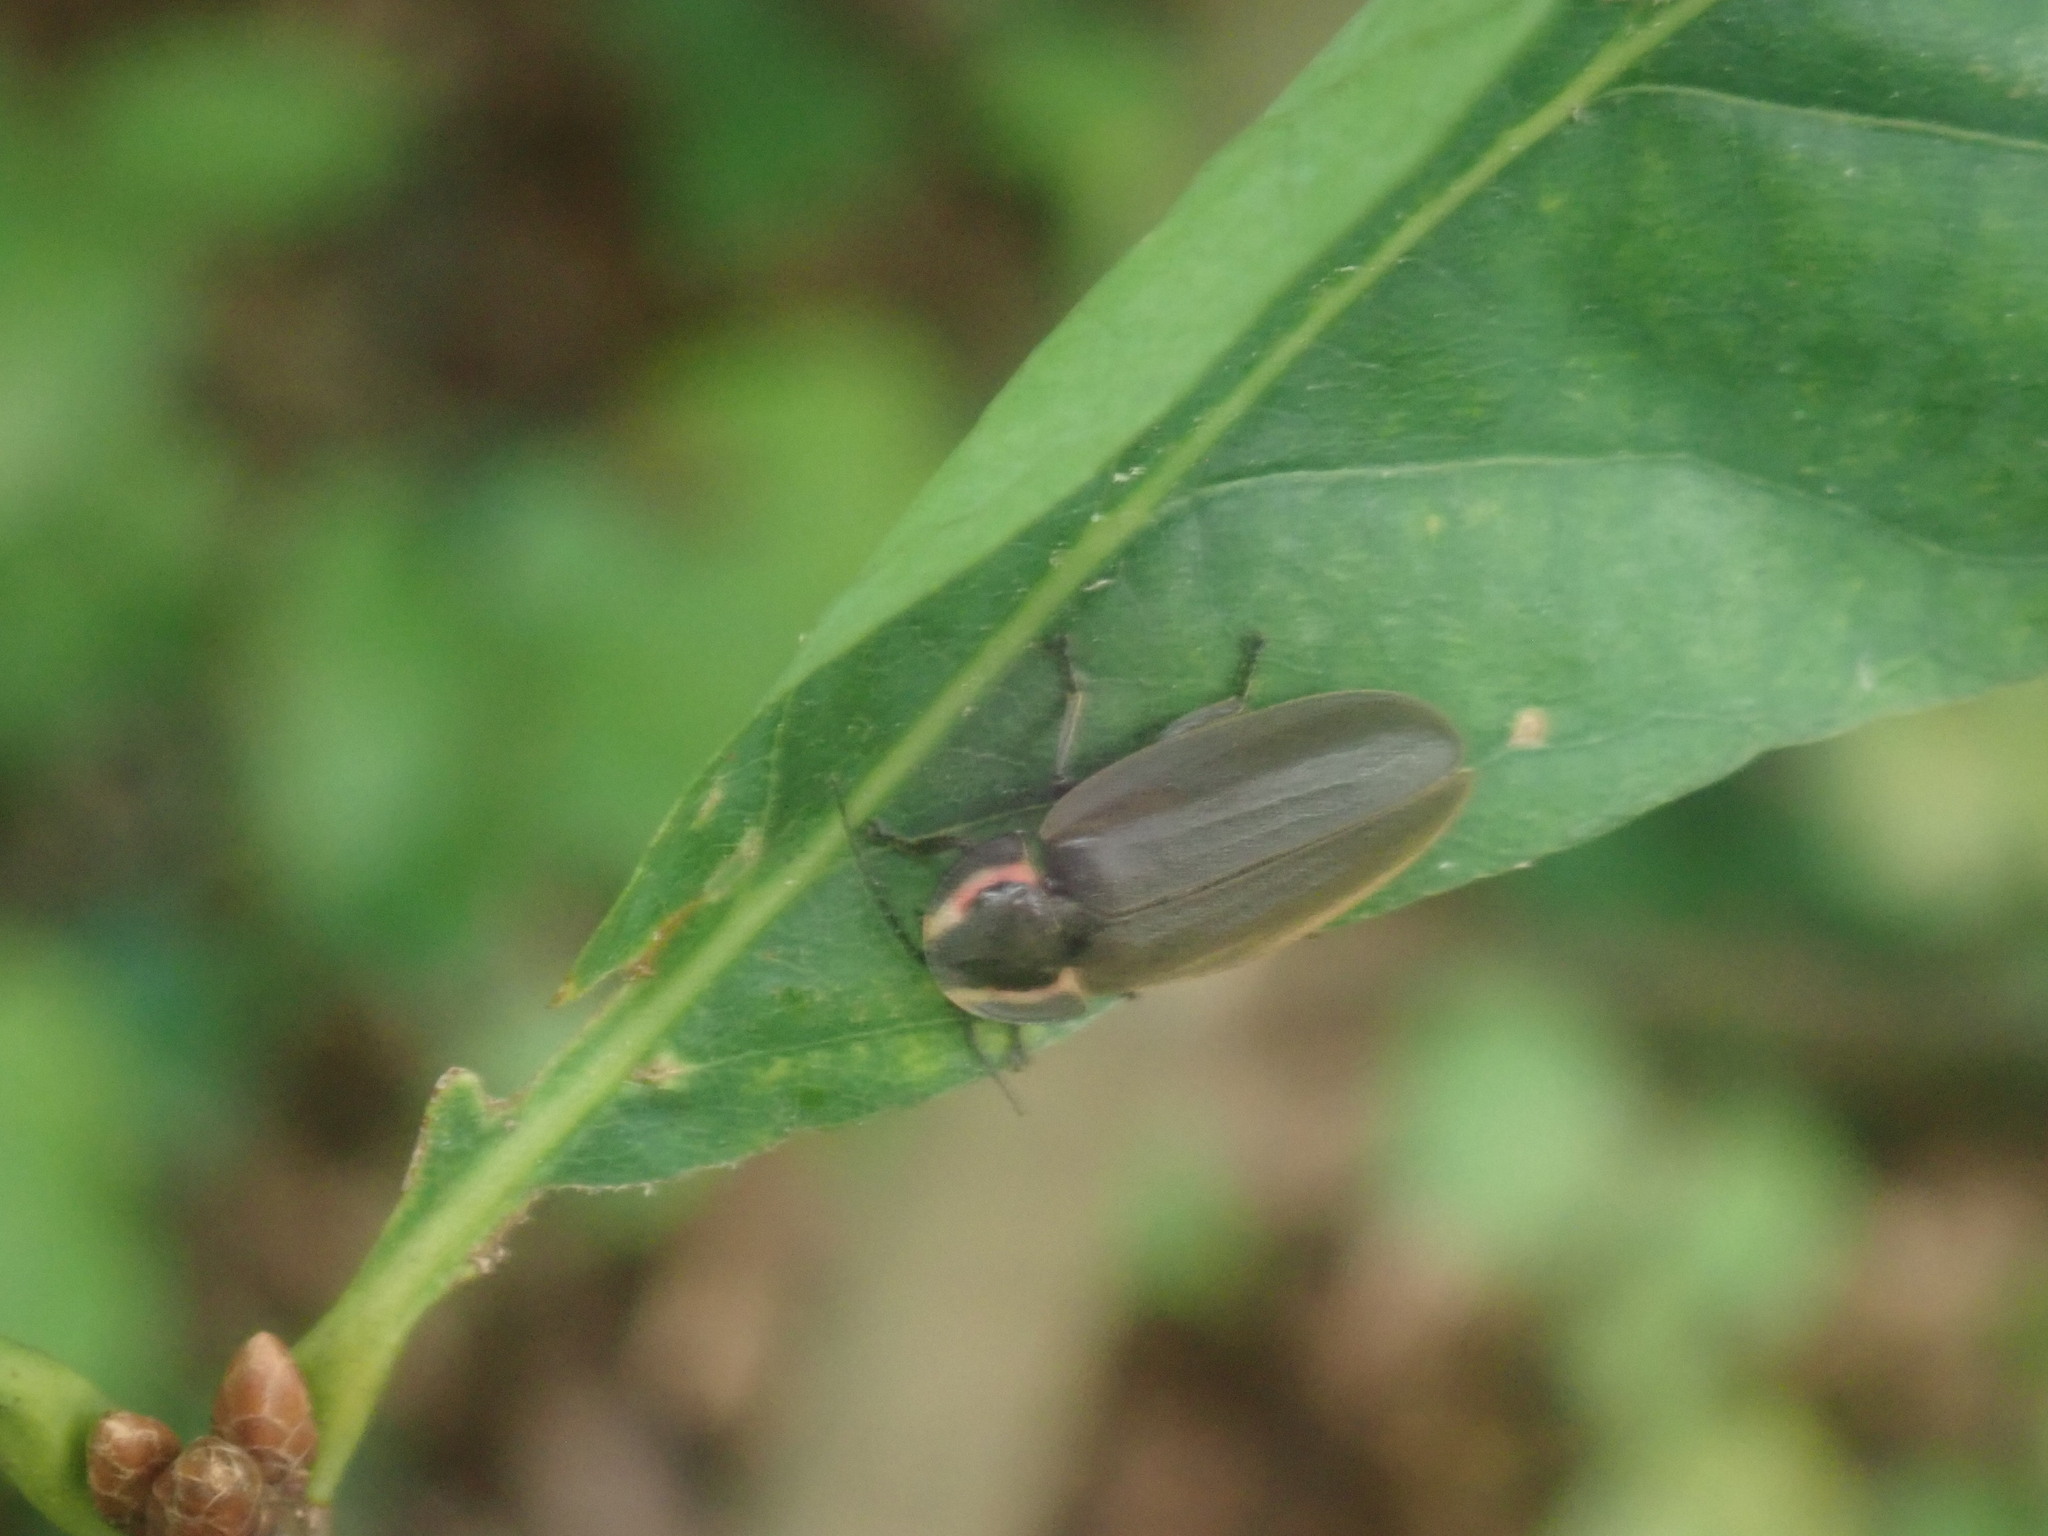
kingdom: Animalia
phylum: Arthropoda
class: Insecta
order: Coleoptera
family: Lampyridae
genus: Photinus
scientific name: Photinus corrusca
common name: Winter firefly
